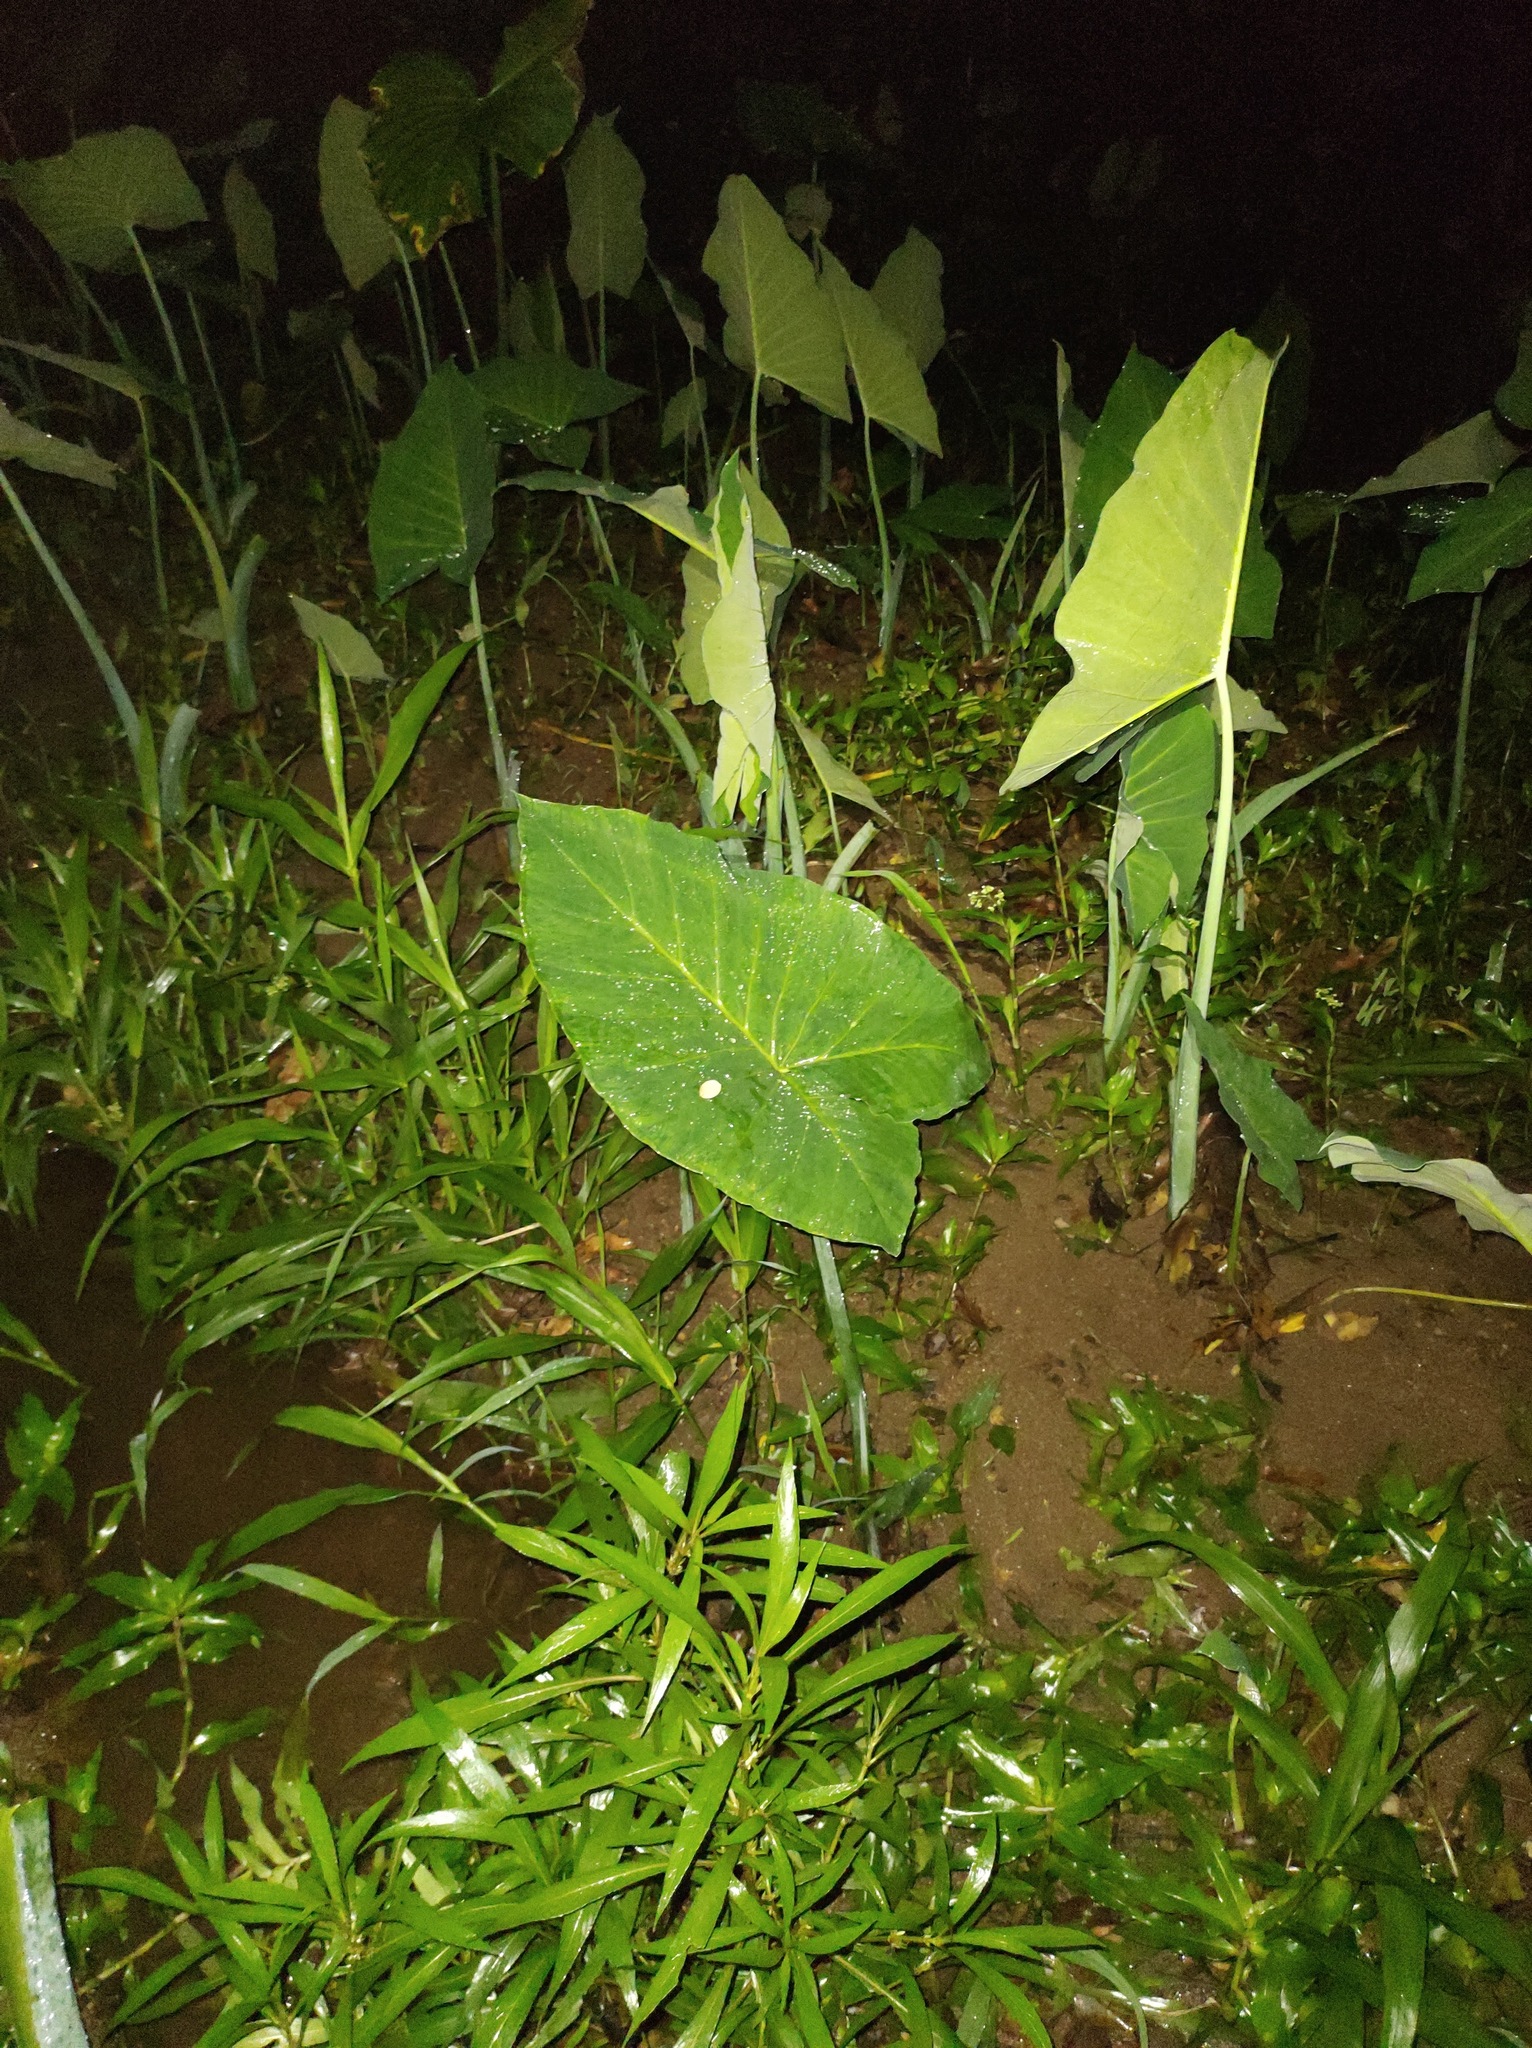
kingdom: Plantae
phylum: Tracheophyta
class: Liliopsida
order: Alismatales
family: Araceae
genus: Xanthosoma
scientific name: Xanthosoma sagittifolium
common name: Arrowleaf elephant's ear
